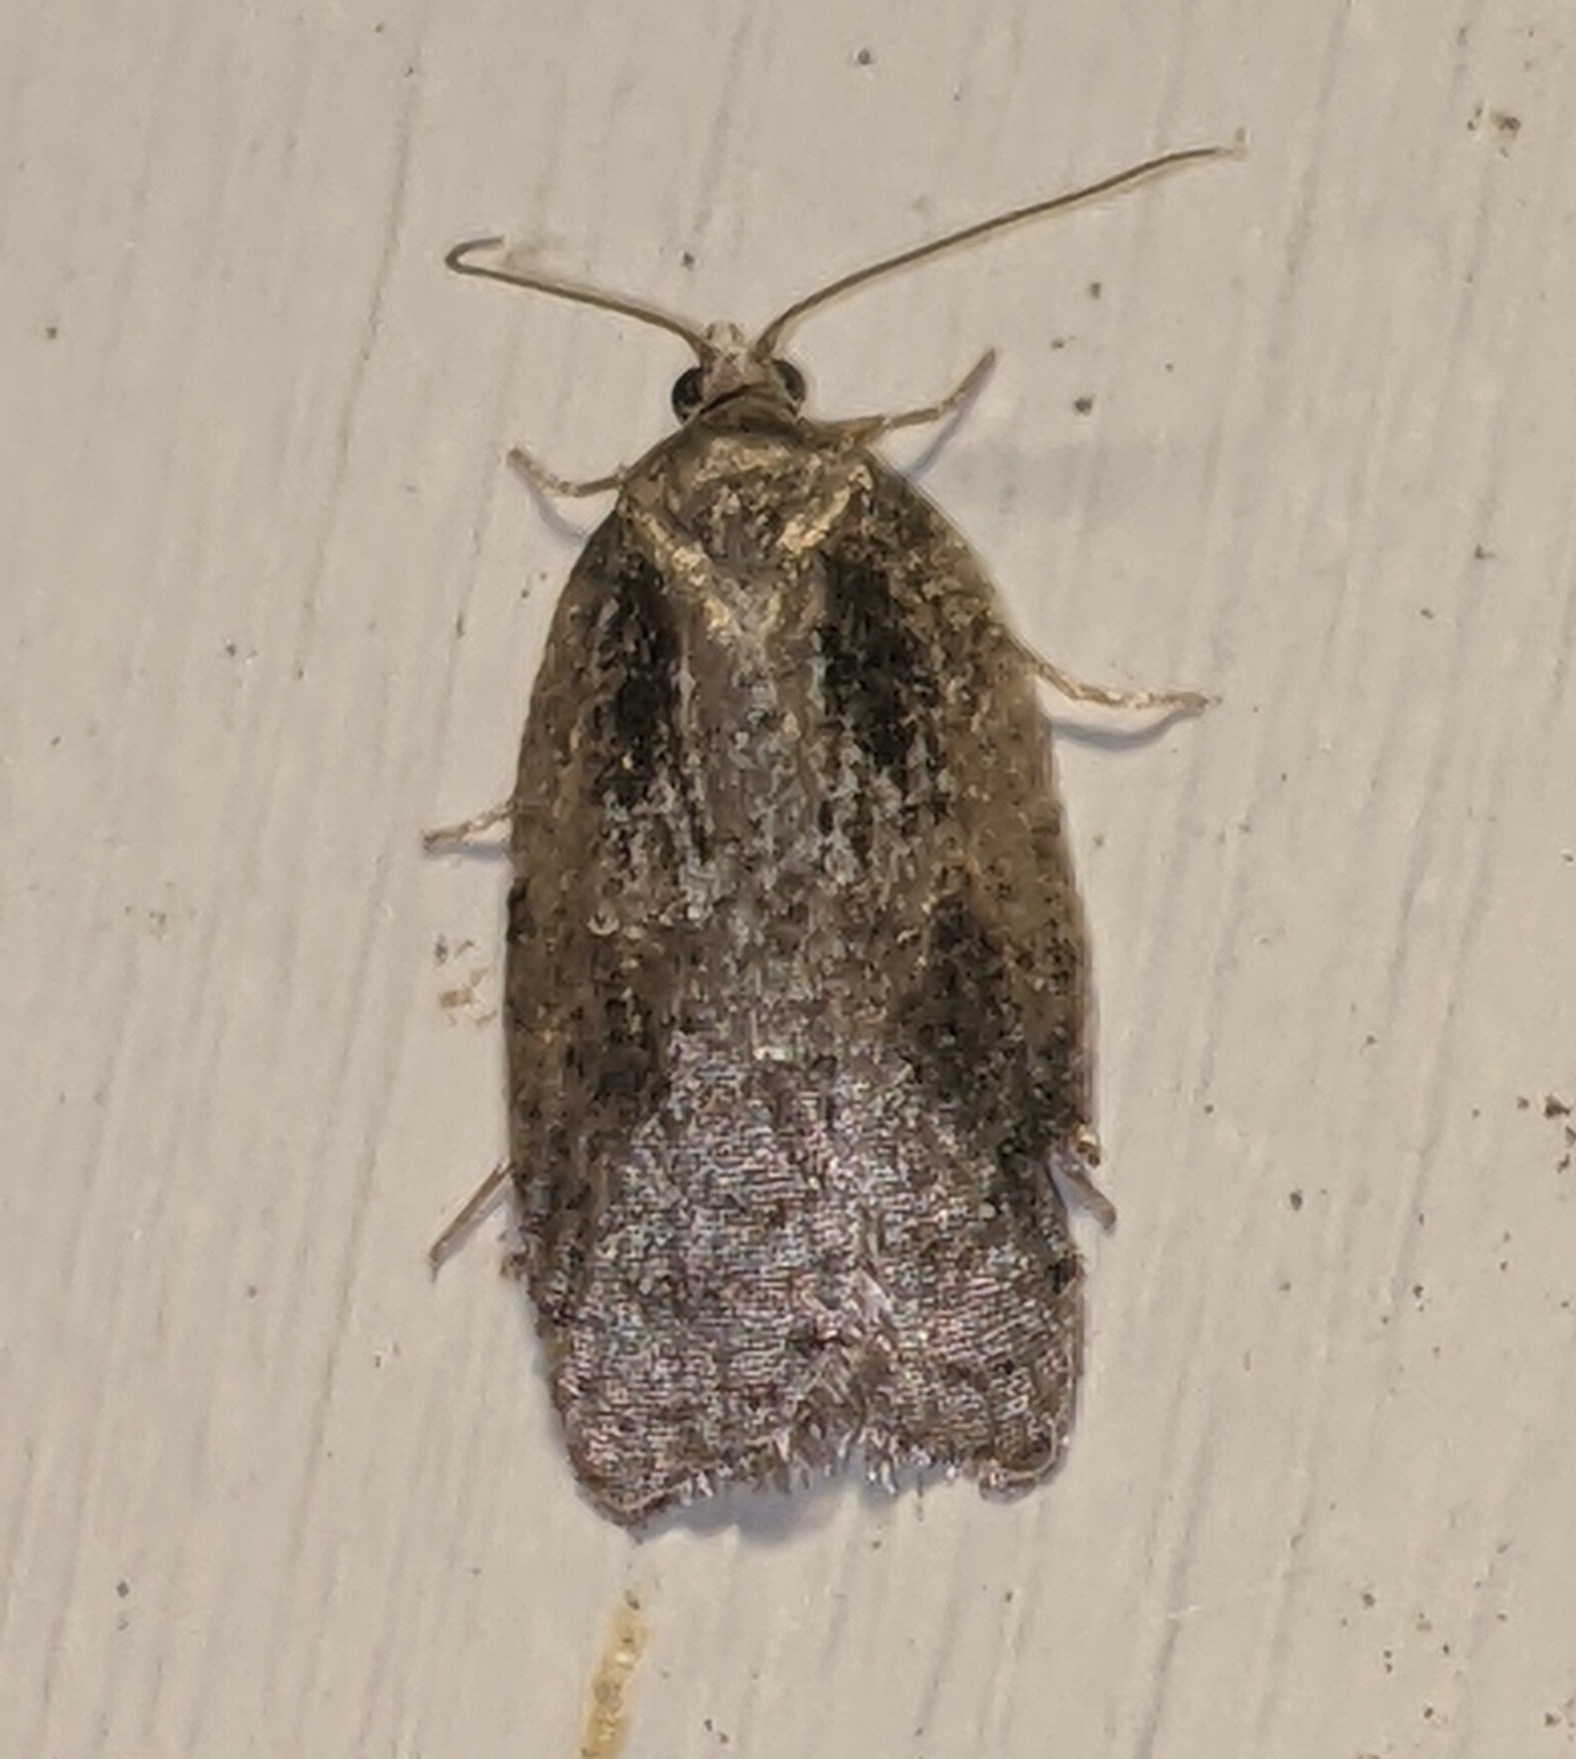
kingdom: Animalia
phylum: Arthropoda
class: Insecta
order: Lepidoptera
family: Tortricidae
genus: Acleris
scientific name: Acleris
